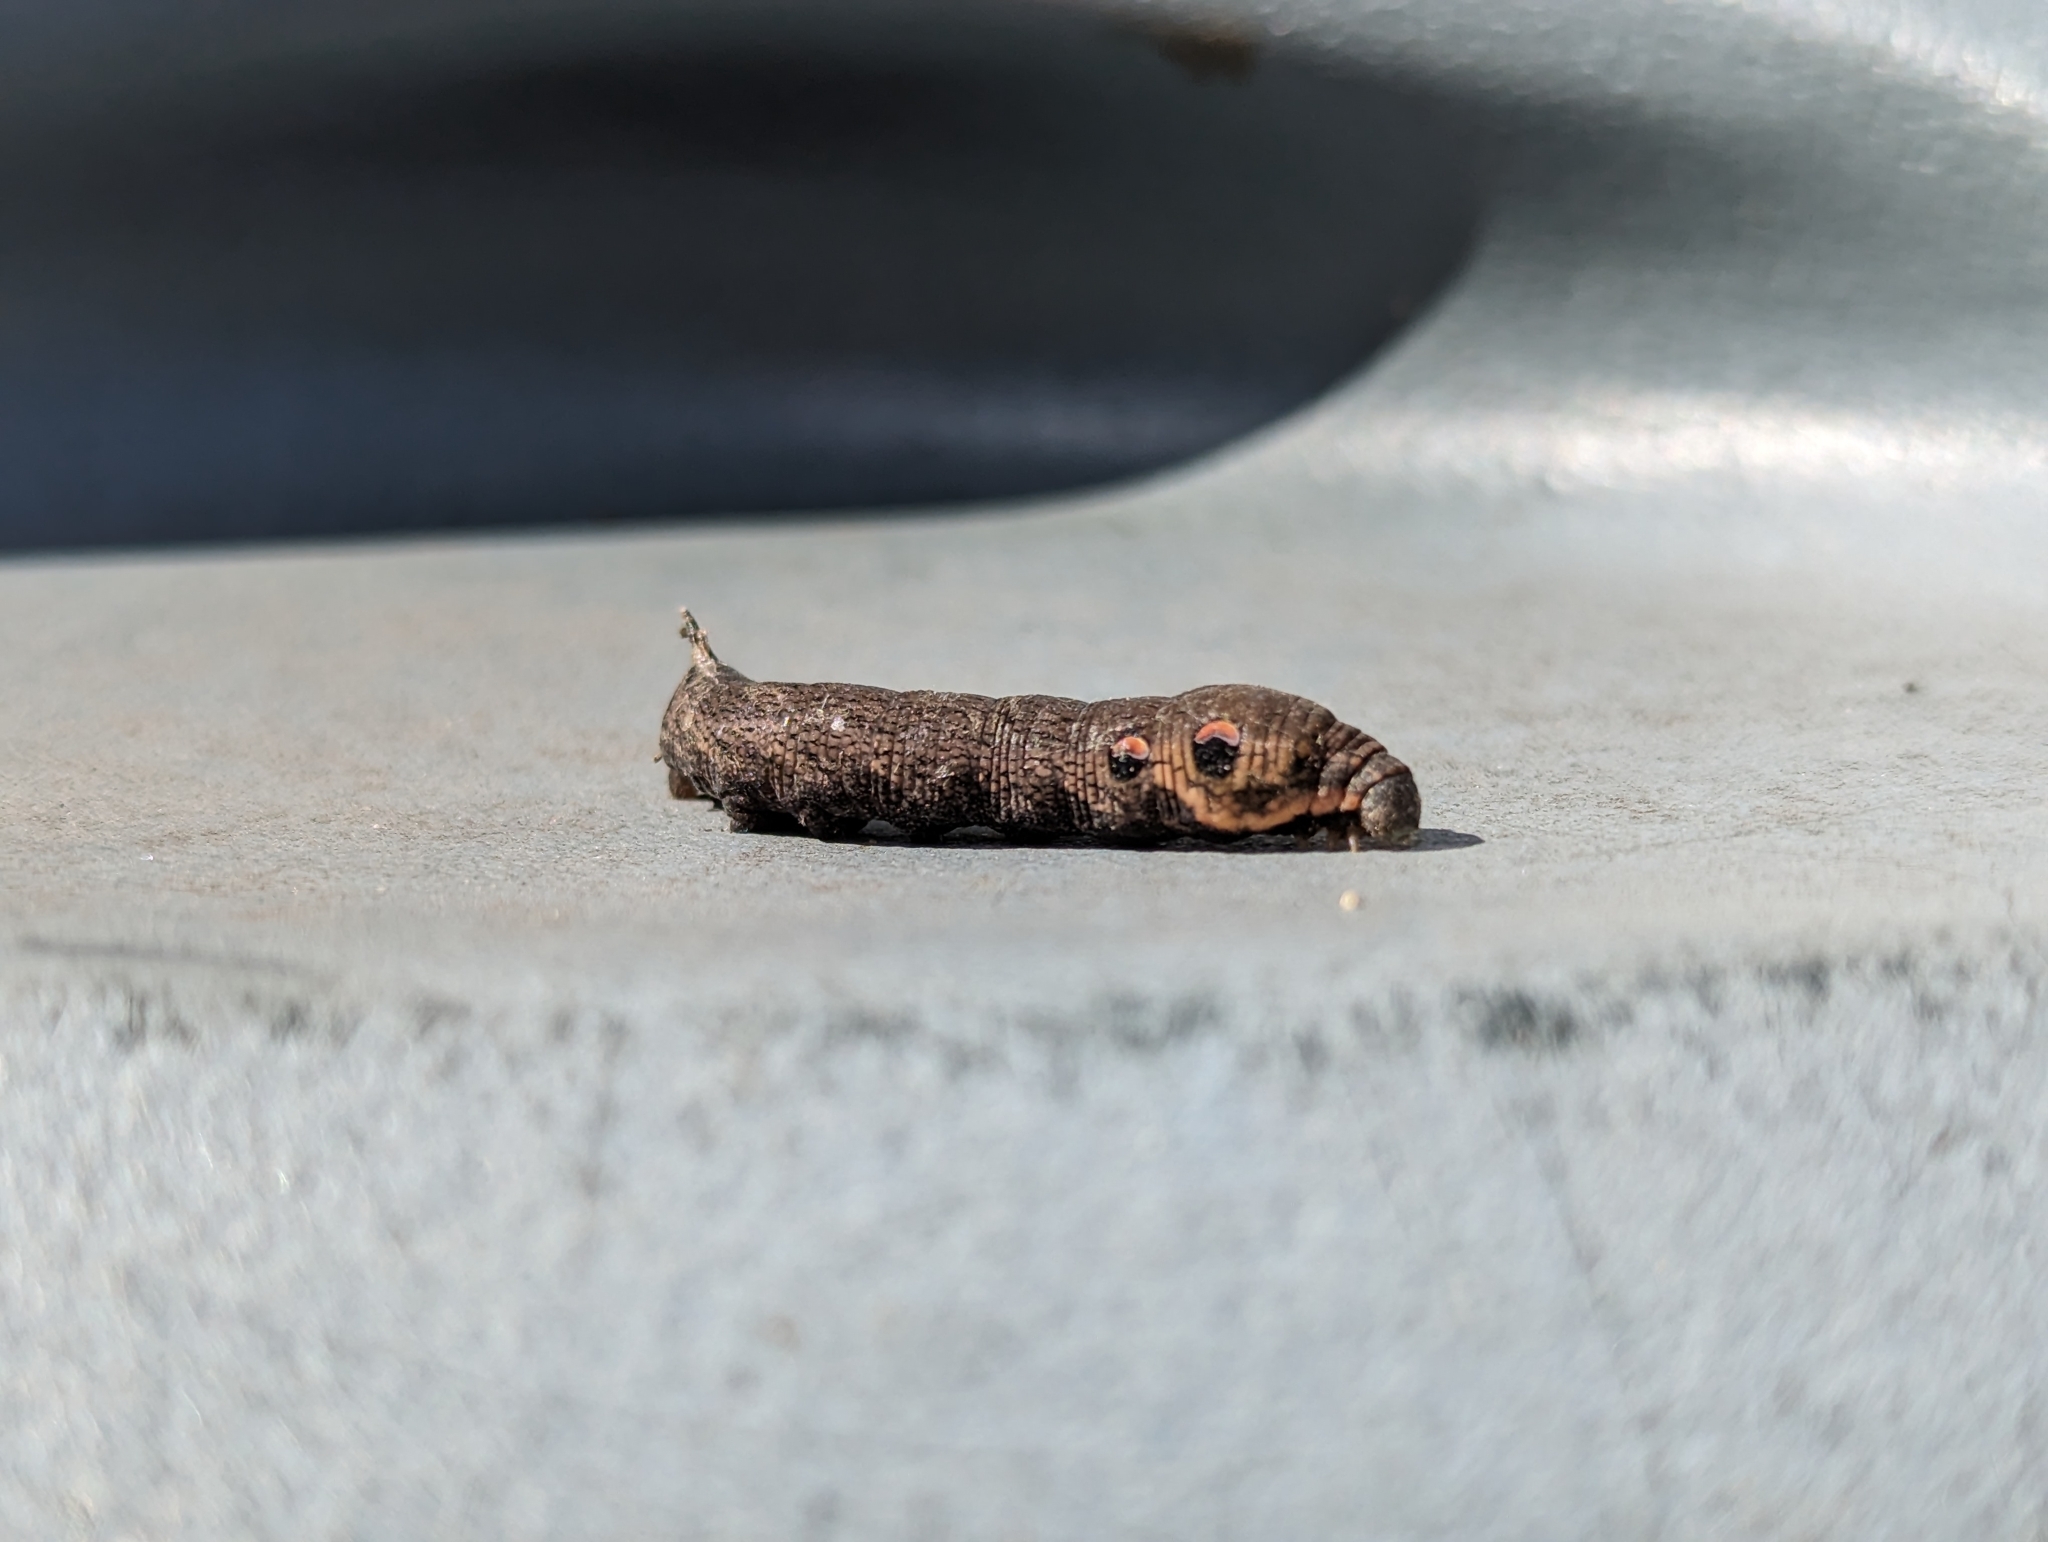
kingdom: Animalia
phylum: Arthropoda
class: Insecta
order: Lepidoptera
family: Sphingidae
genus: Deilephila
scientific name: Deilephila elpenor
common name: Elephant hawk-moth
